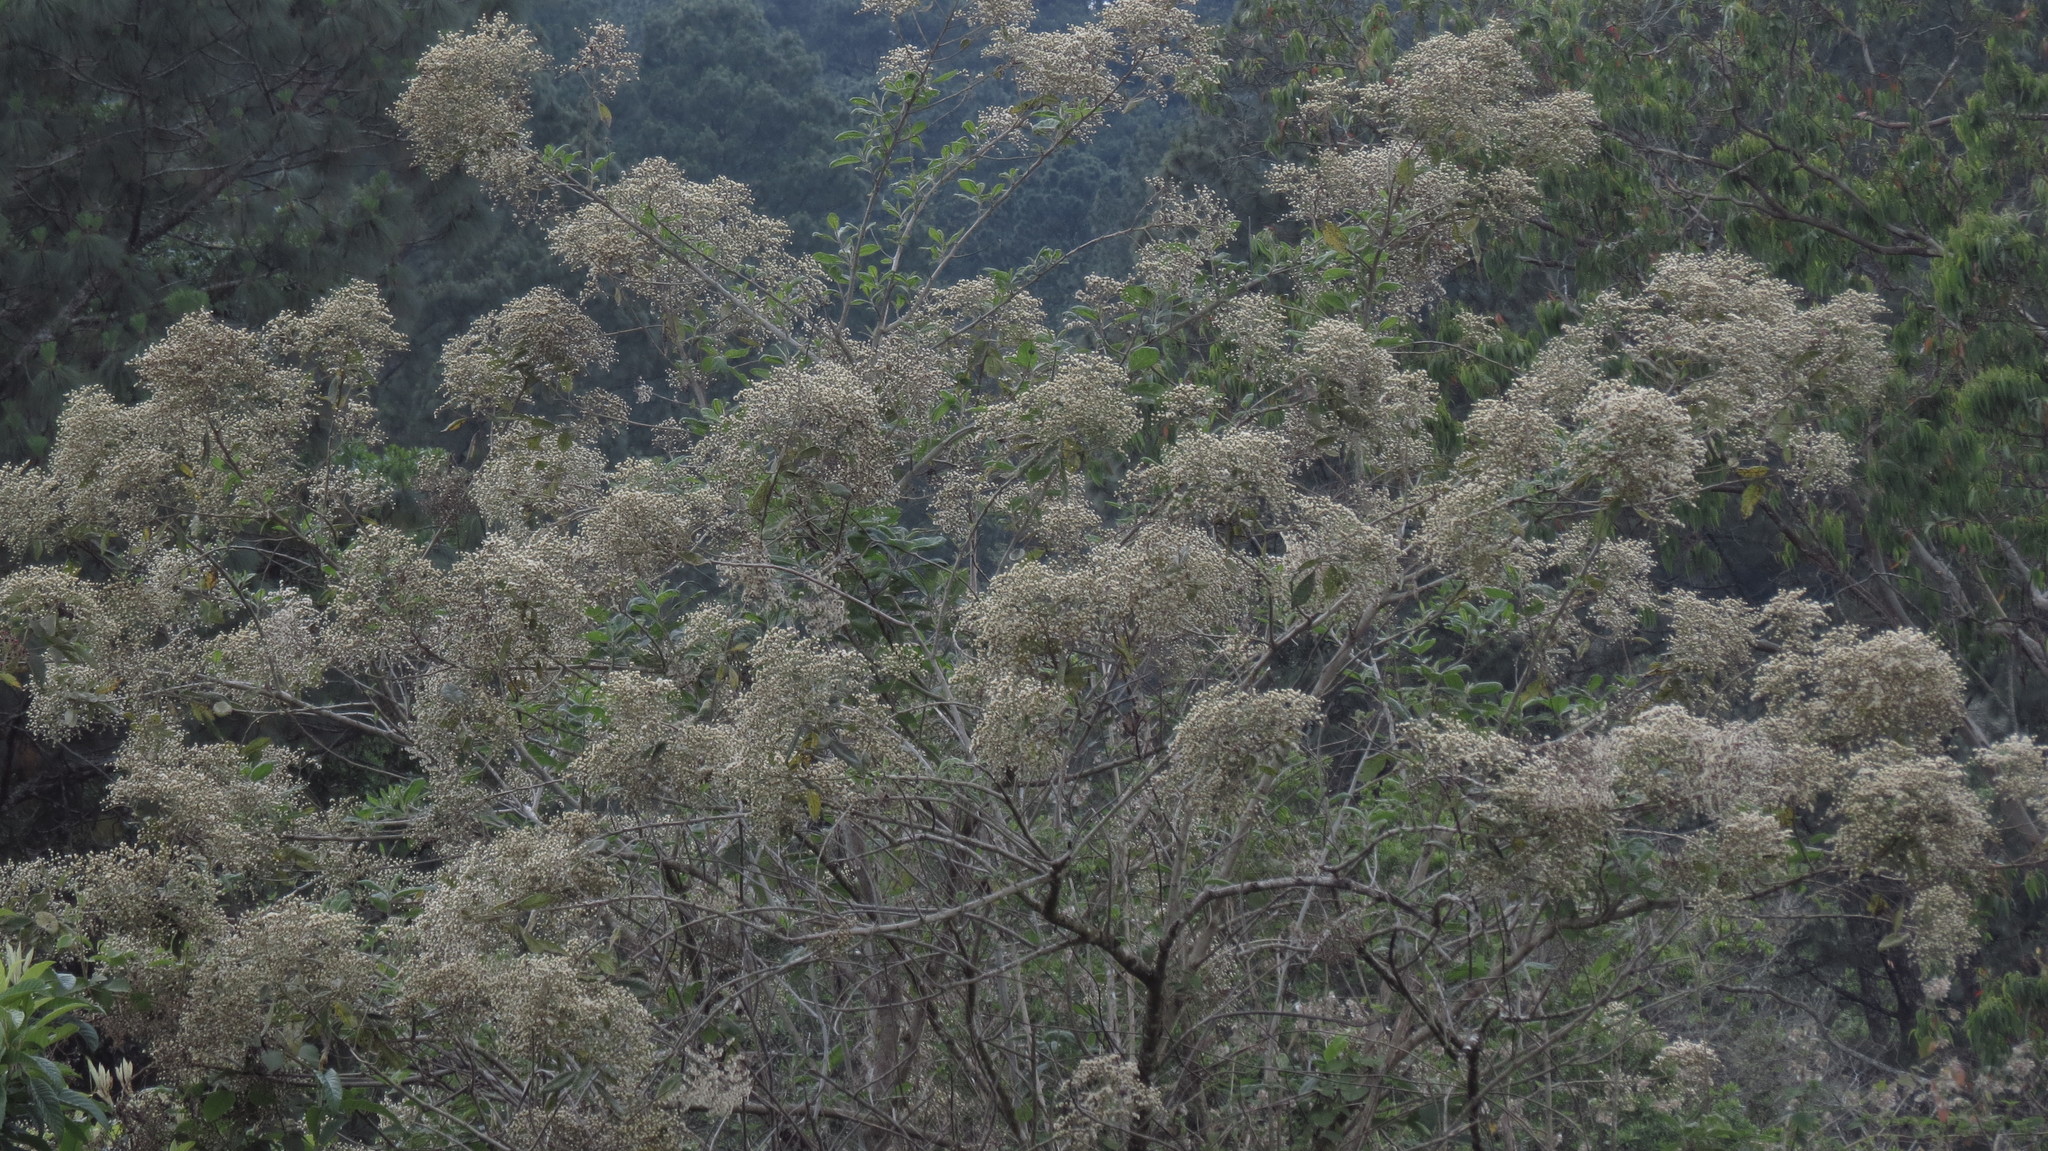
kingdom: Plantae
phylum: Tracheophyta
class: Magnoliopsida
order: Asterales
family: Asteraceae
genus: Vernonanthura
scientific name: Vernonanthura patens
